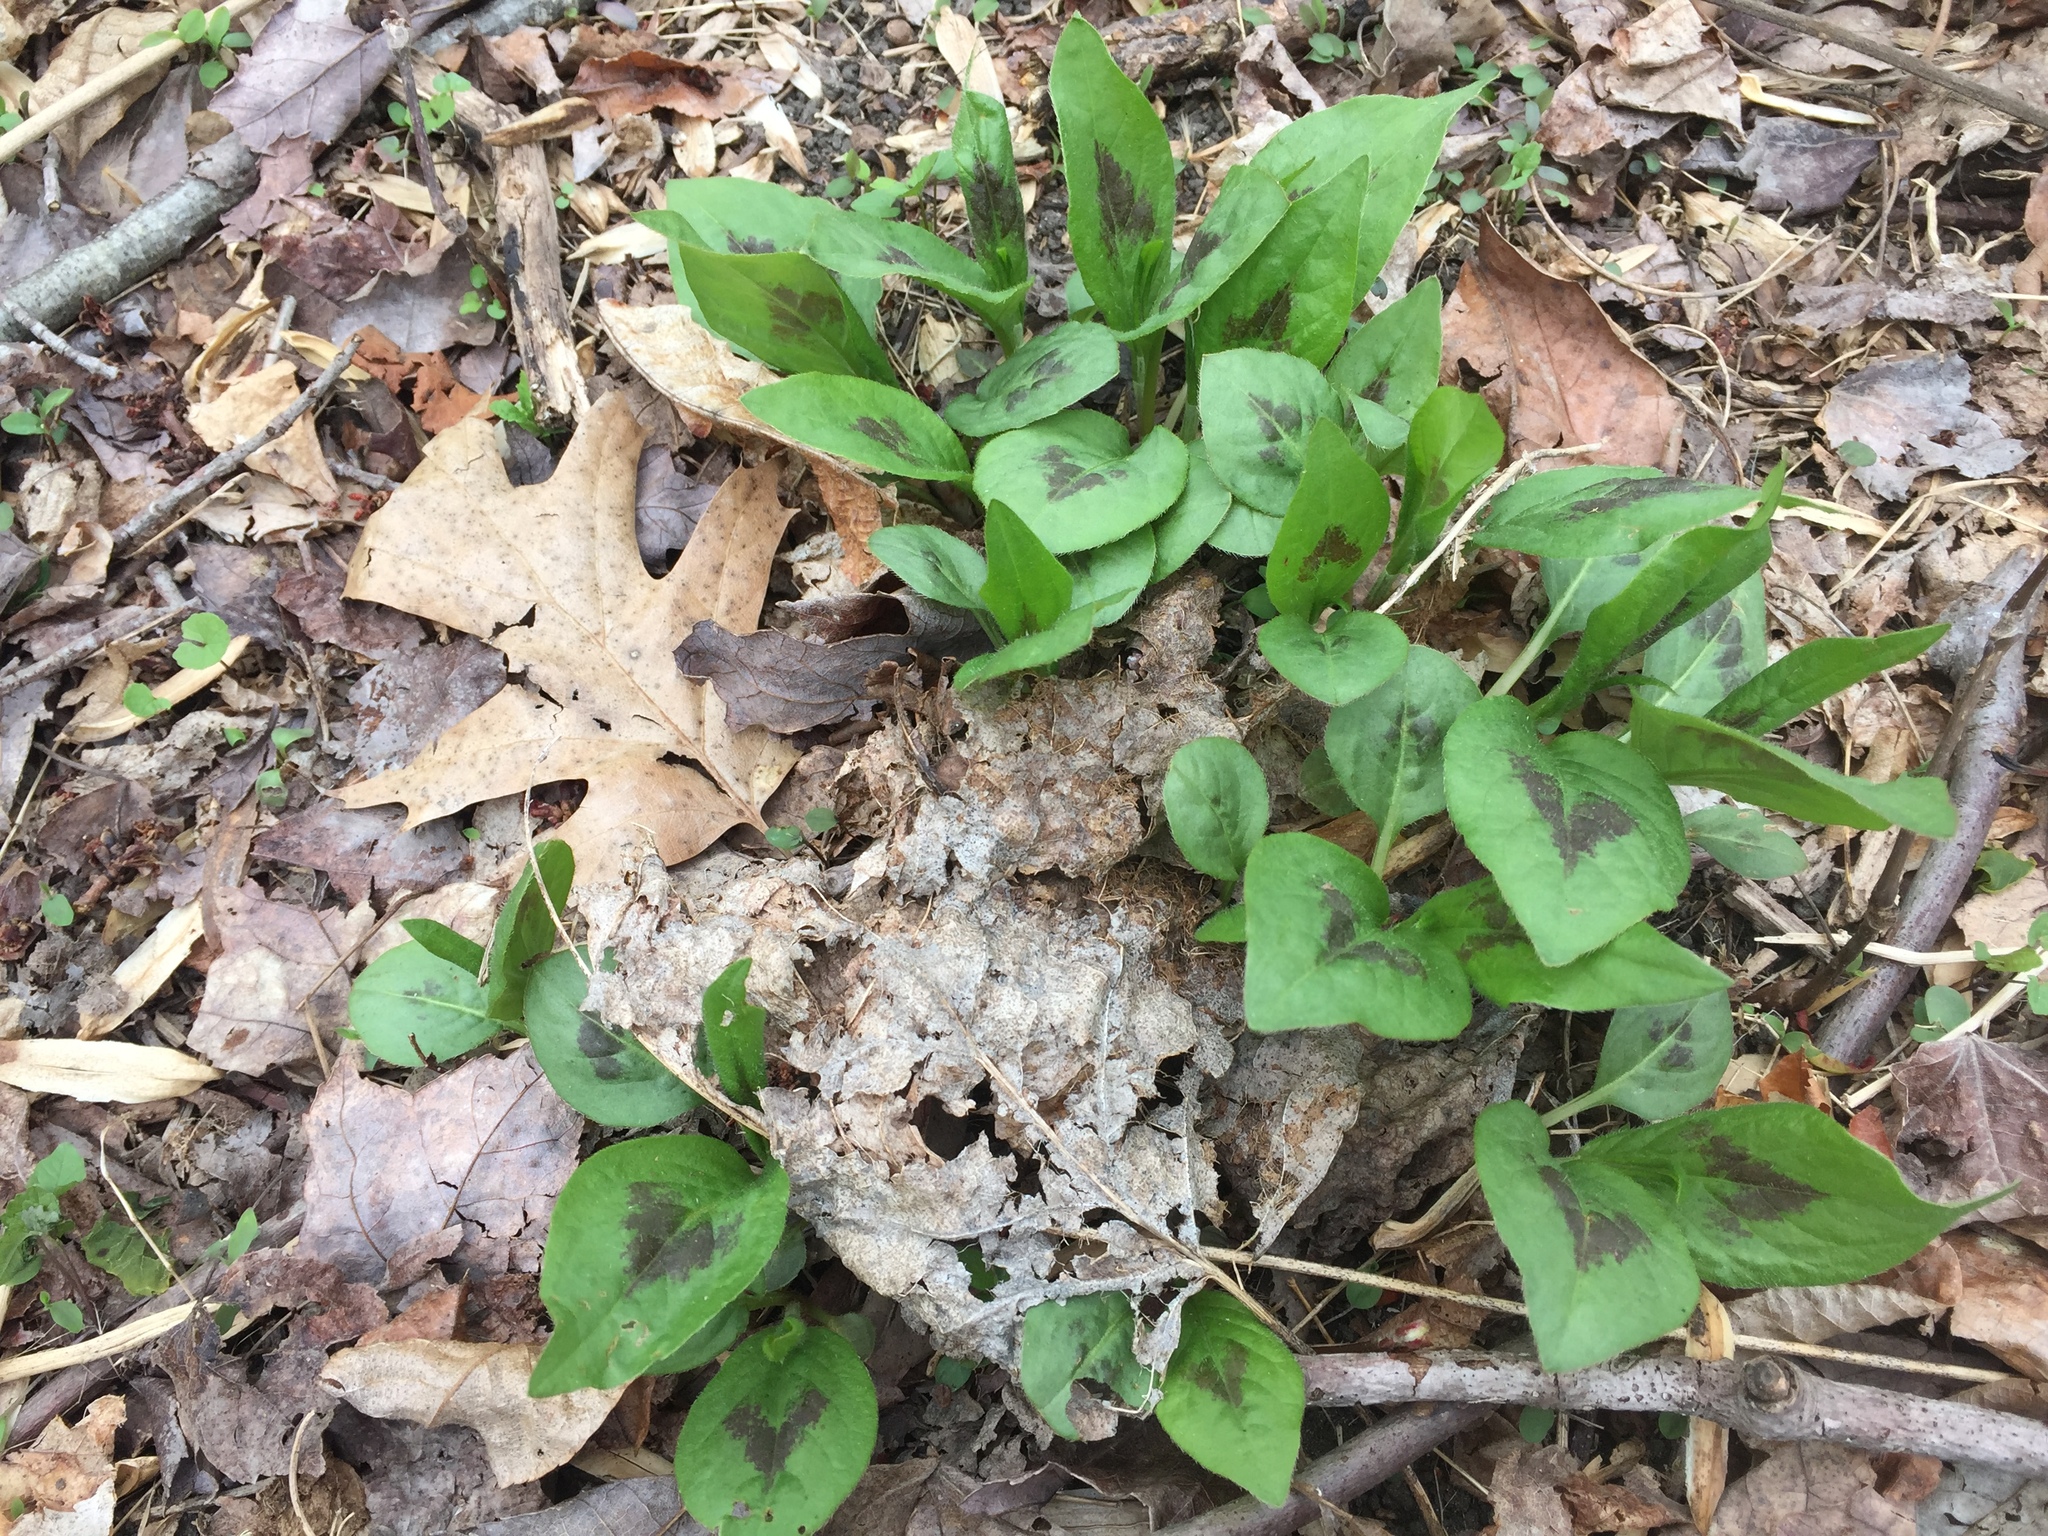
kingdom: Plantae
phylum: Tracheophyta
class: Magnoliopsida
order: Caryophyllales
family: Polygonaceae
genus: Persicaria
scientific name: Persicaria virginiana
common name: Jumpseed
